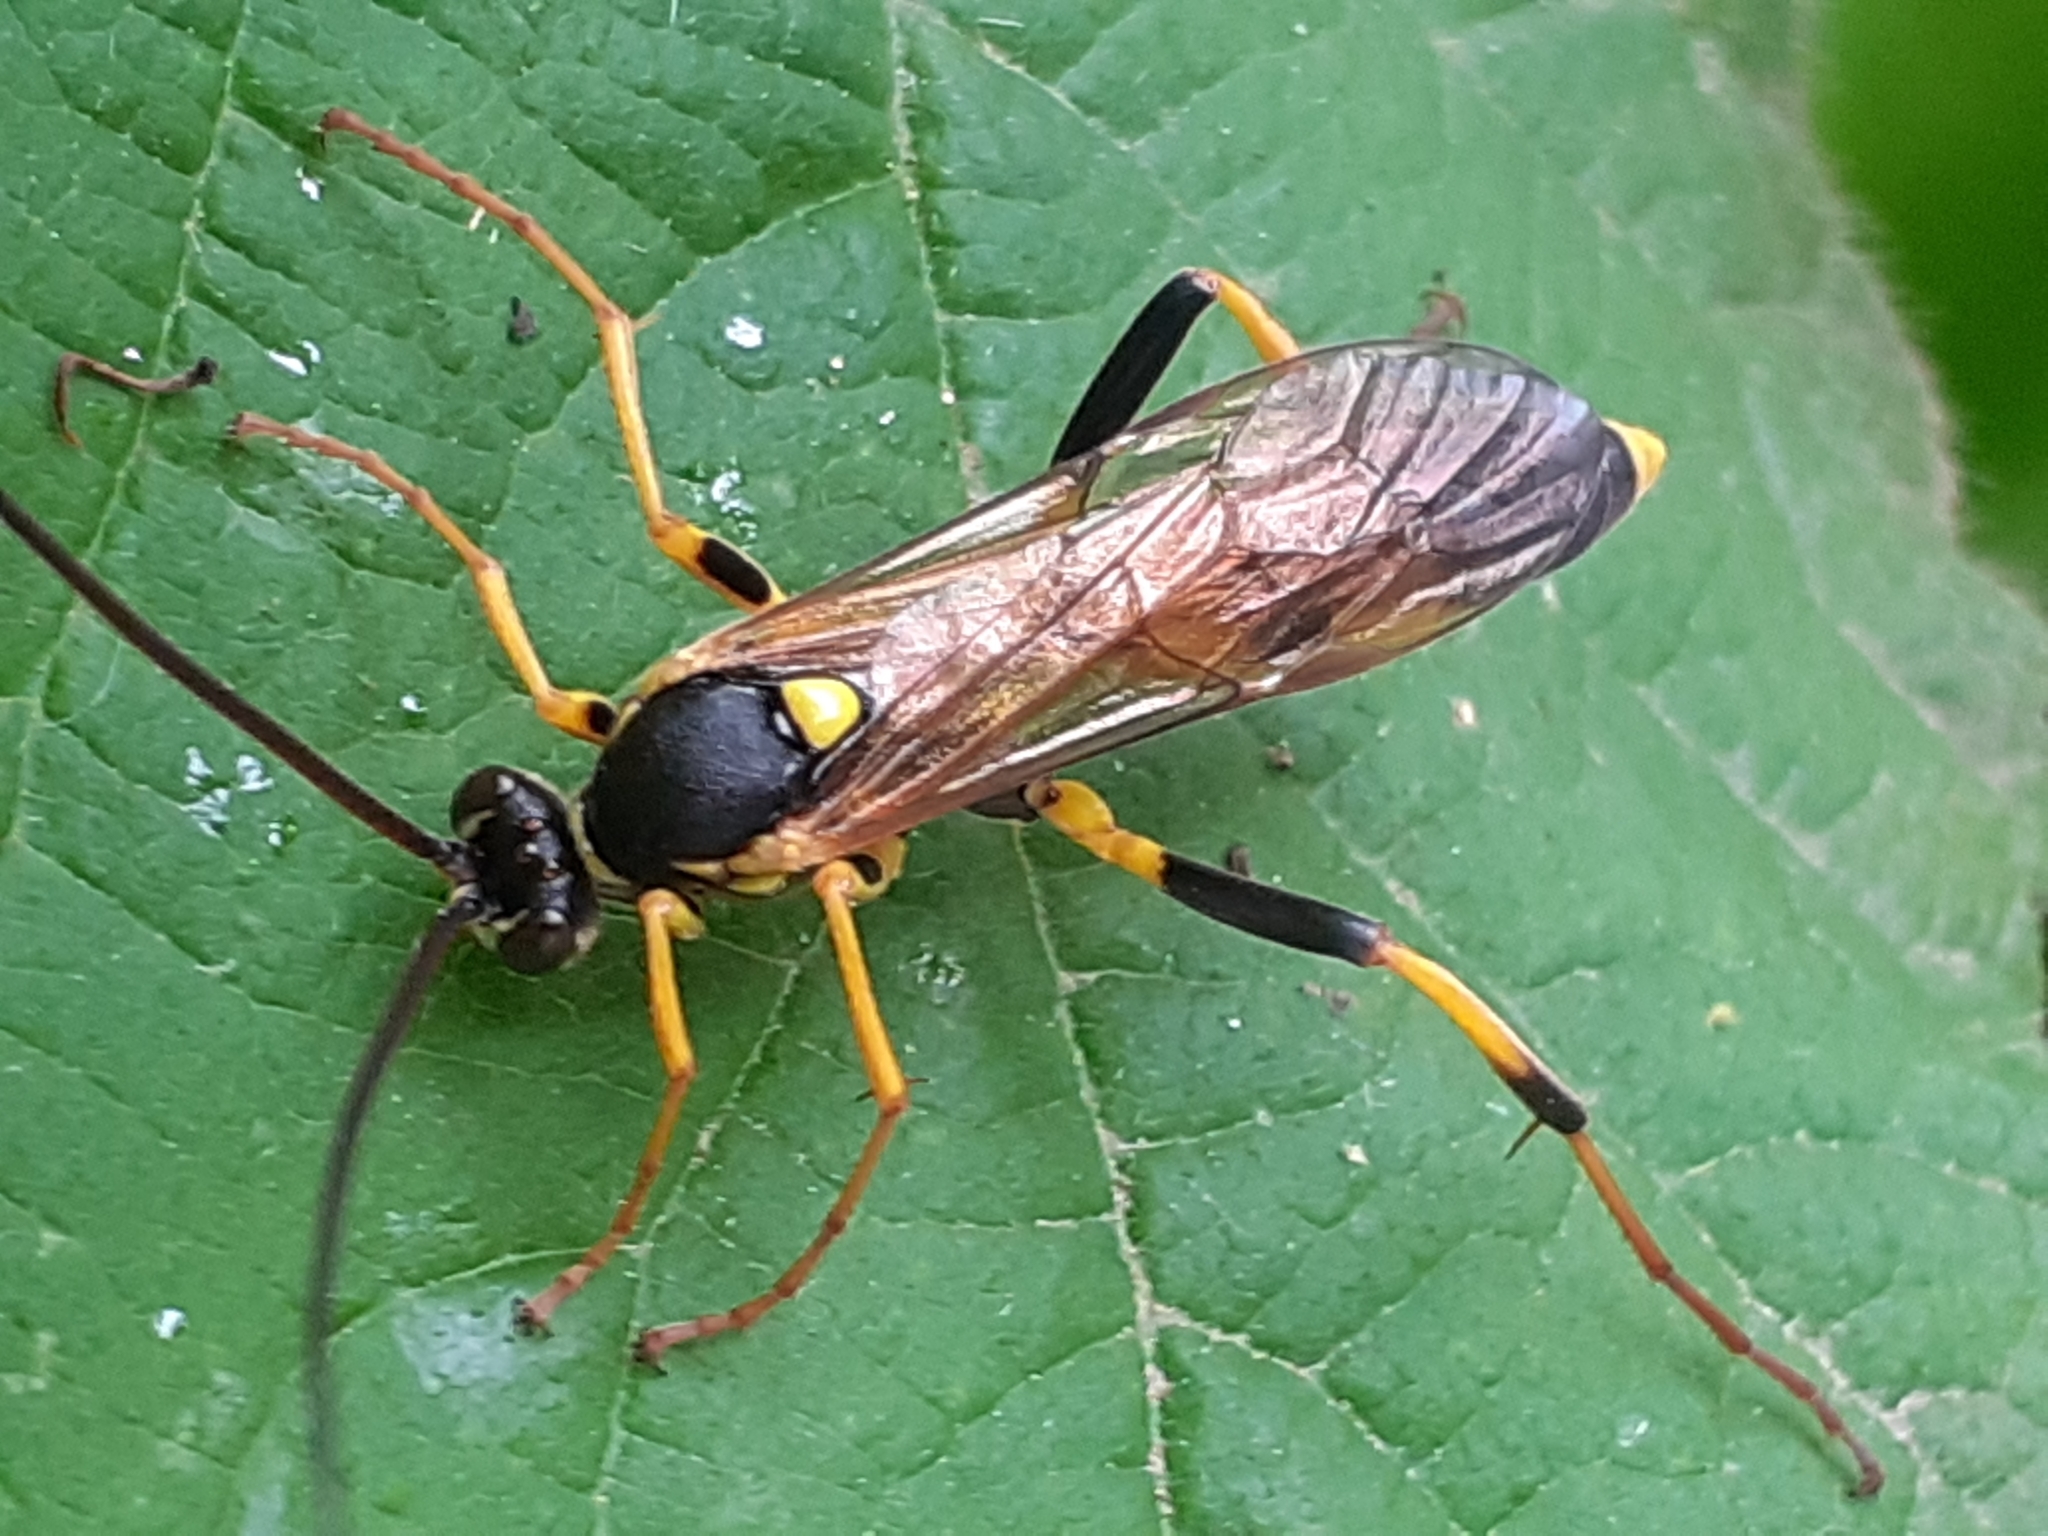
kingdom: Animalia
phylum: Arthropoda
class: Insecta
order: Hymenoptera
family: Ichneumonidae
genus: Amblyteles
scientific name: Amblyteles armatorius
